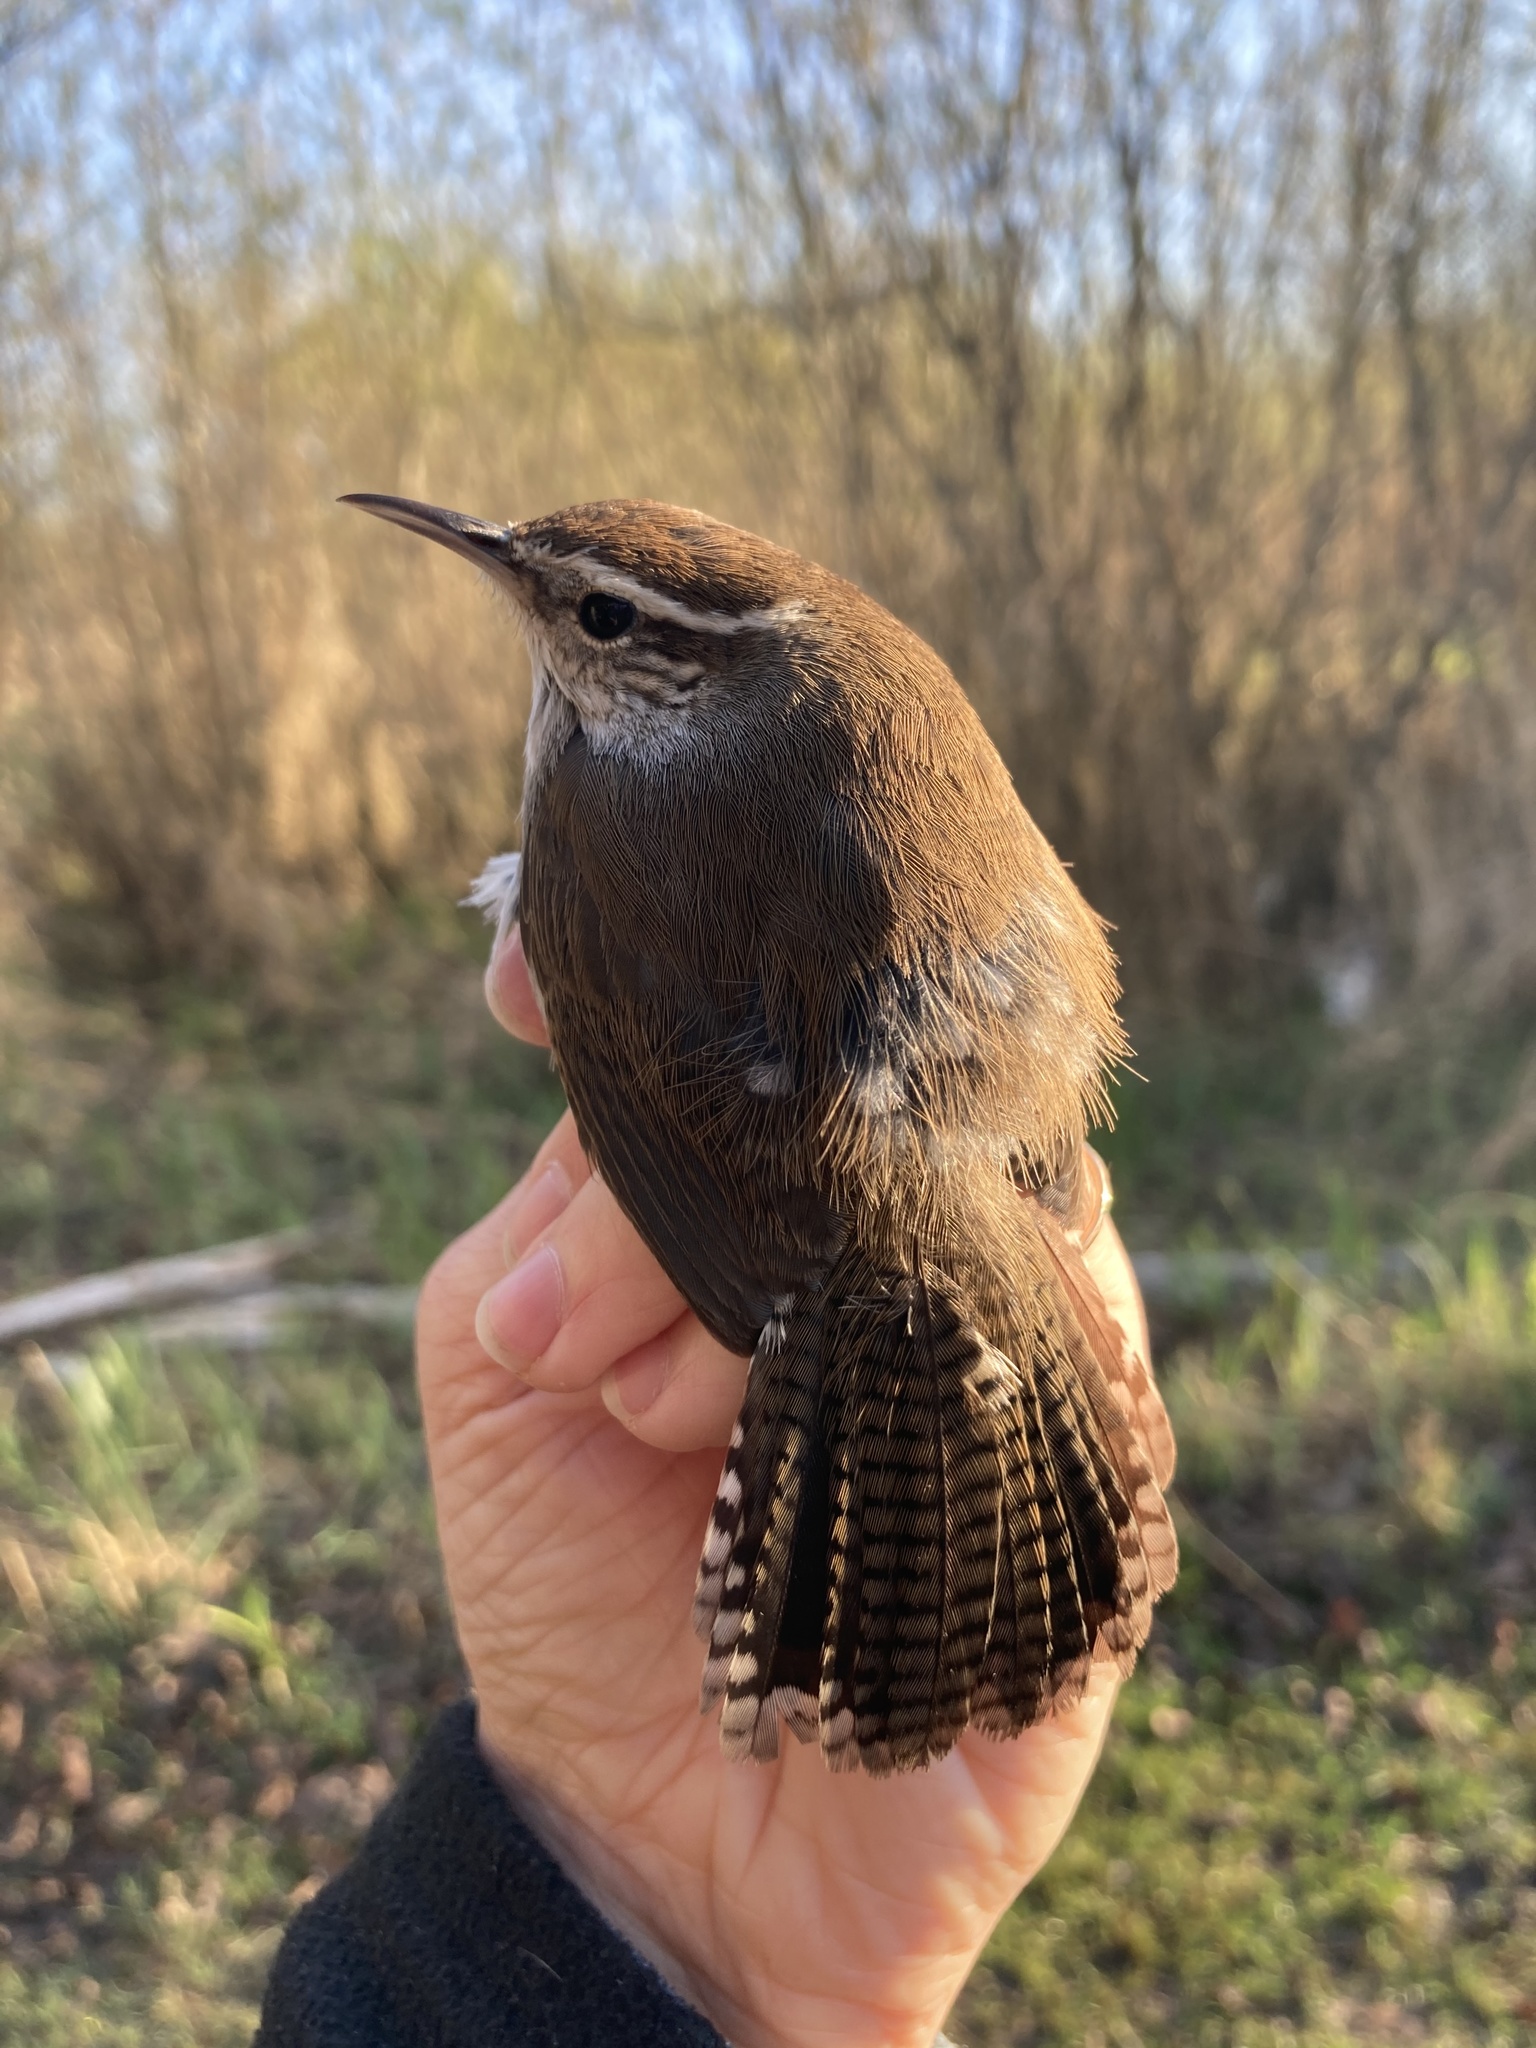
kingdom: Animalia
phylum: Chordata
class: Aves
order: Passeriformes
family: Troglodytidae
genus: Thryomanes
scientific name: Thryomanes bewickii
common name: Bewick's wren
